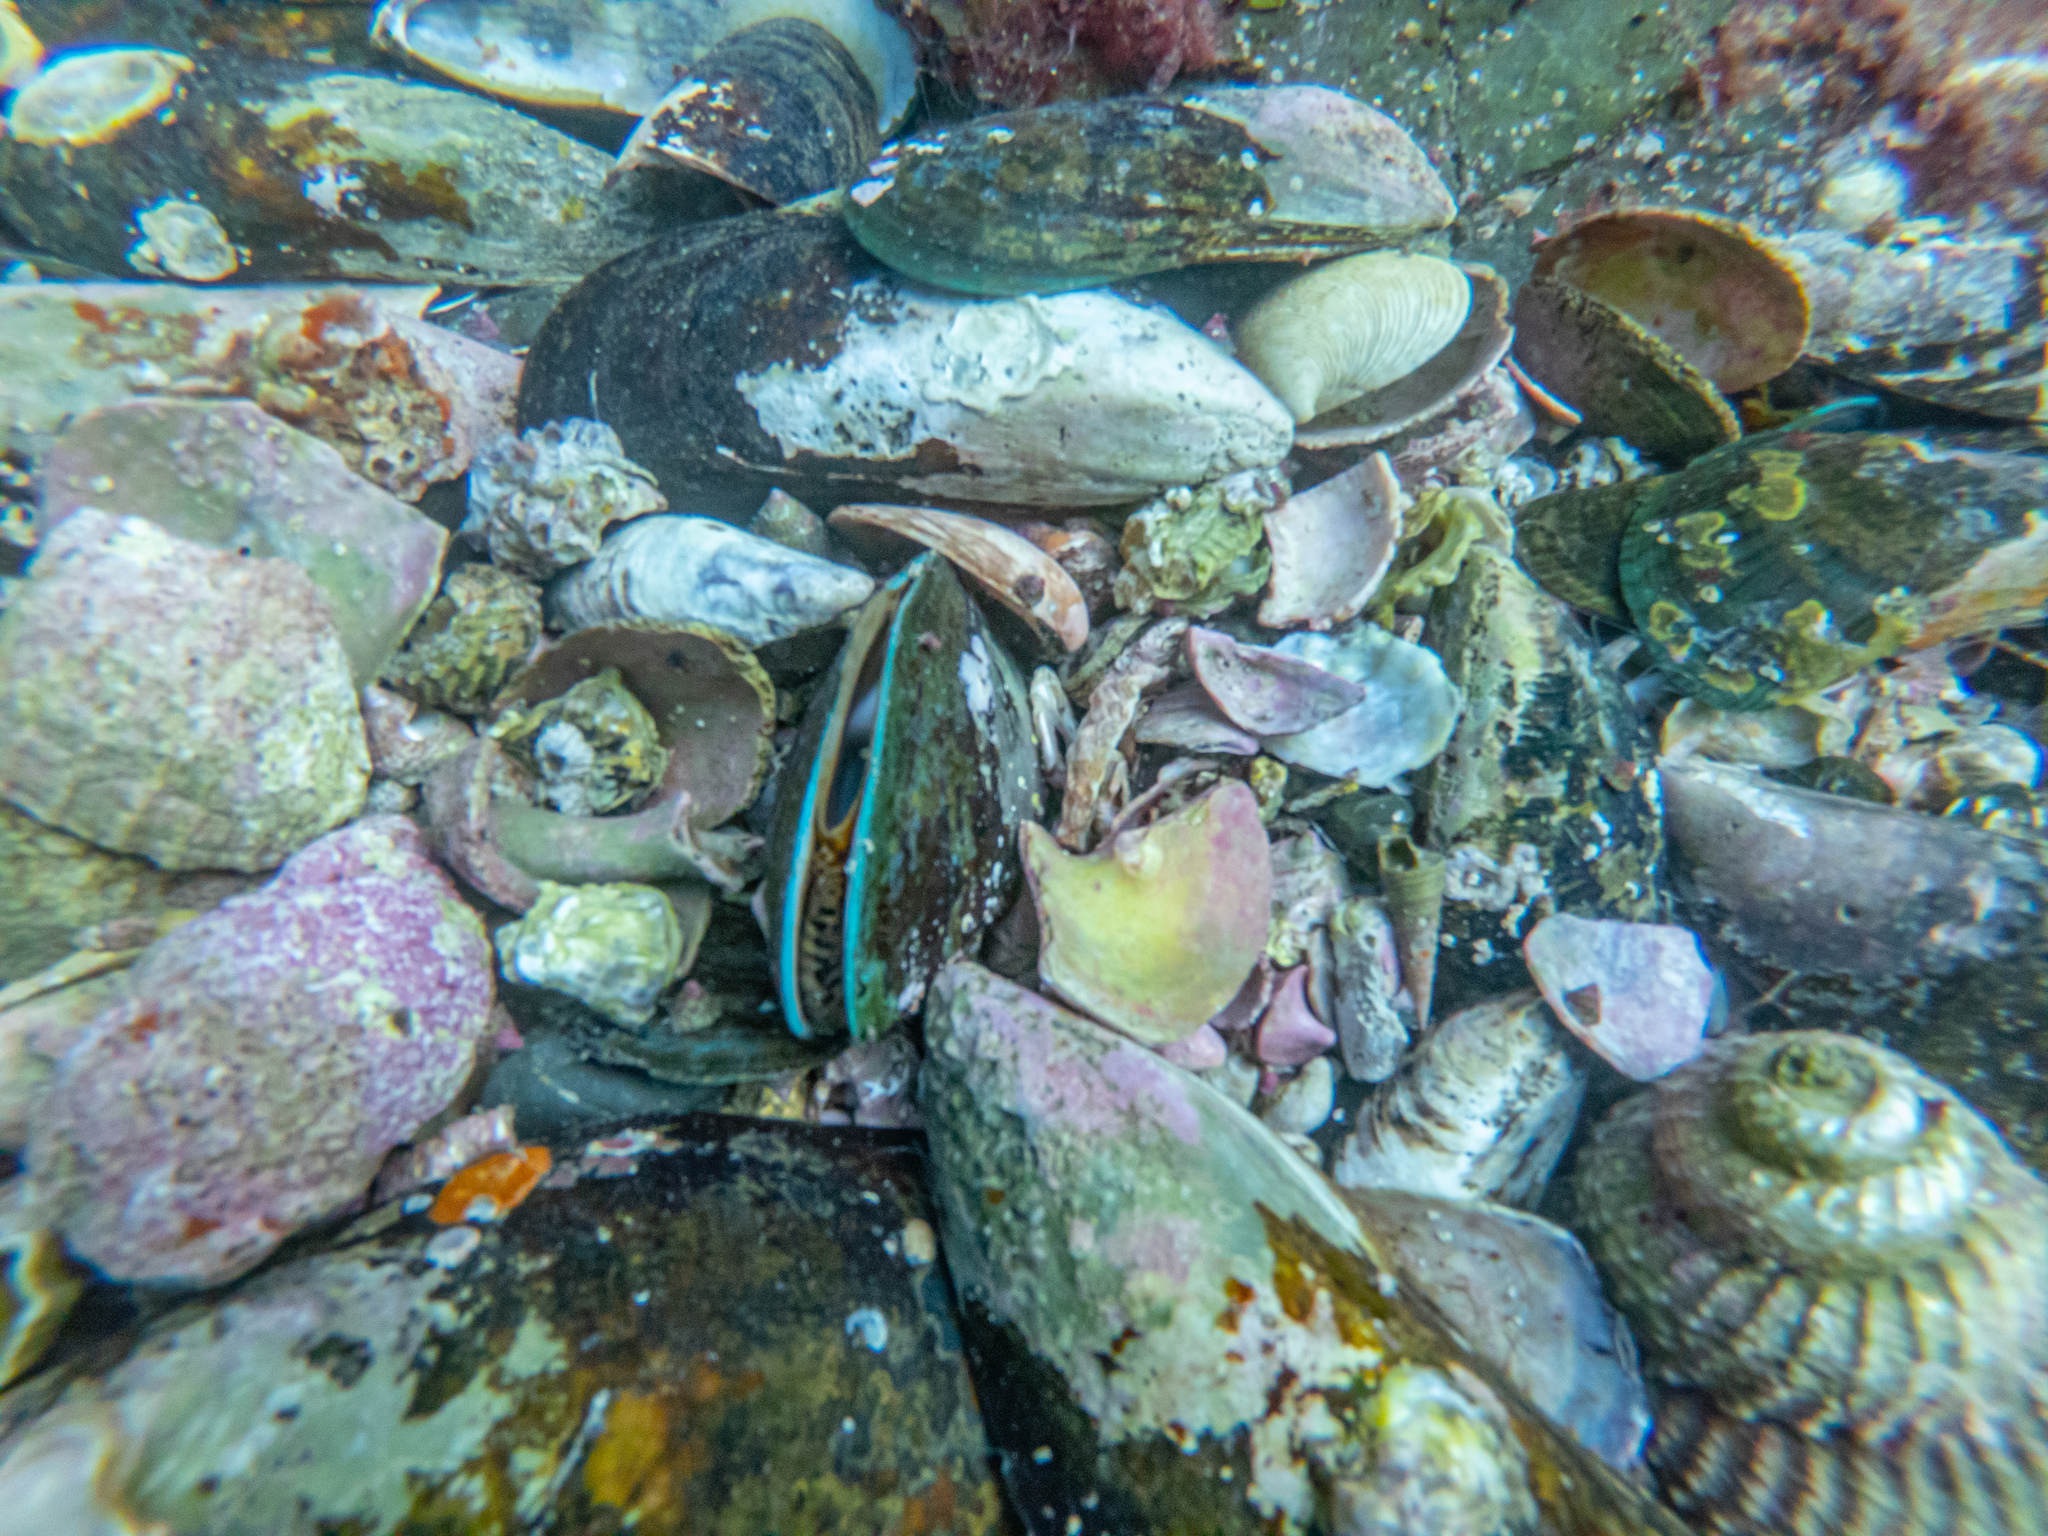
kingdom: Animalia
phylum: Mollusca
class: Bivalvia
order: Mytilida
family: Mytilidae
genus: Perna
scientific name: Perna canaliculus
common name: New zealand greenshelltm
